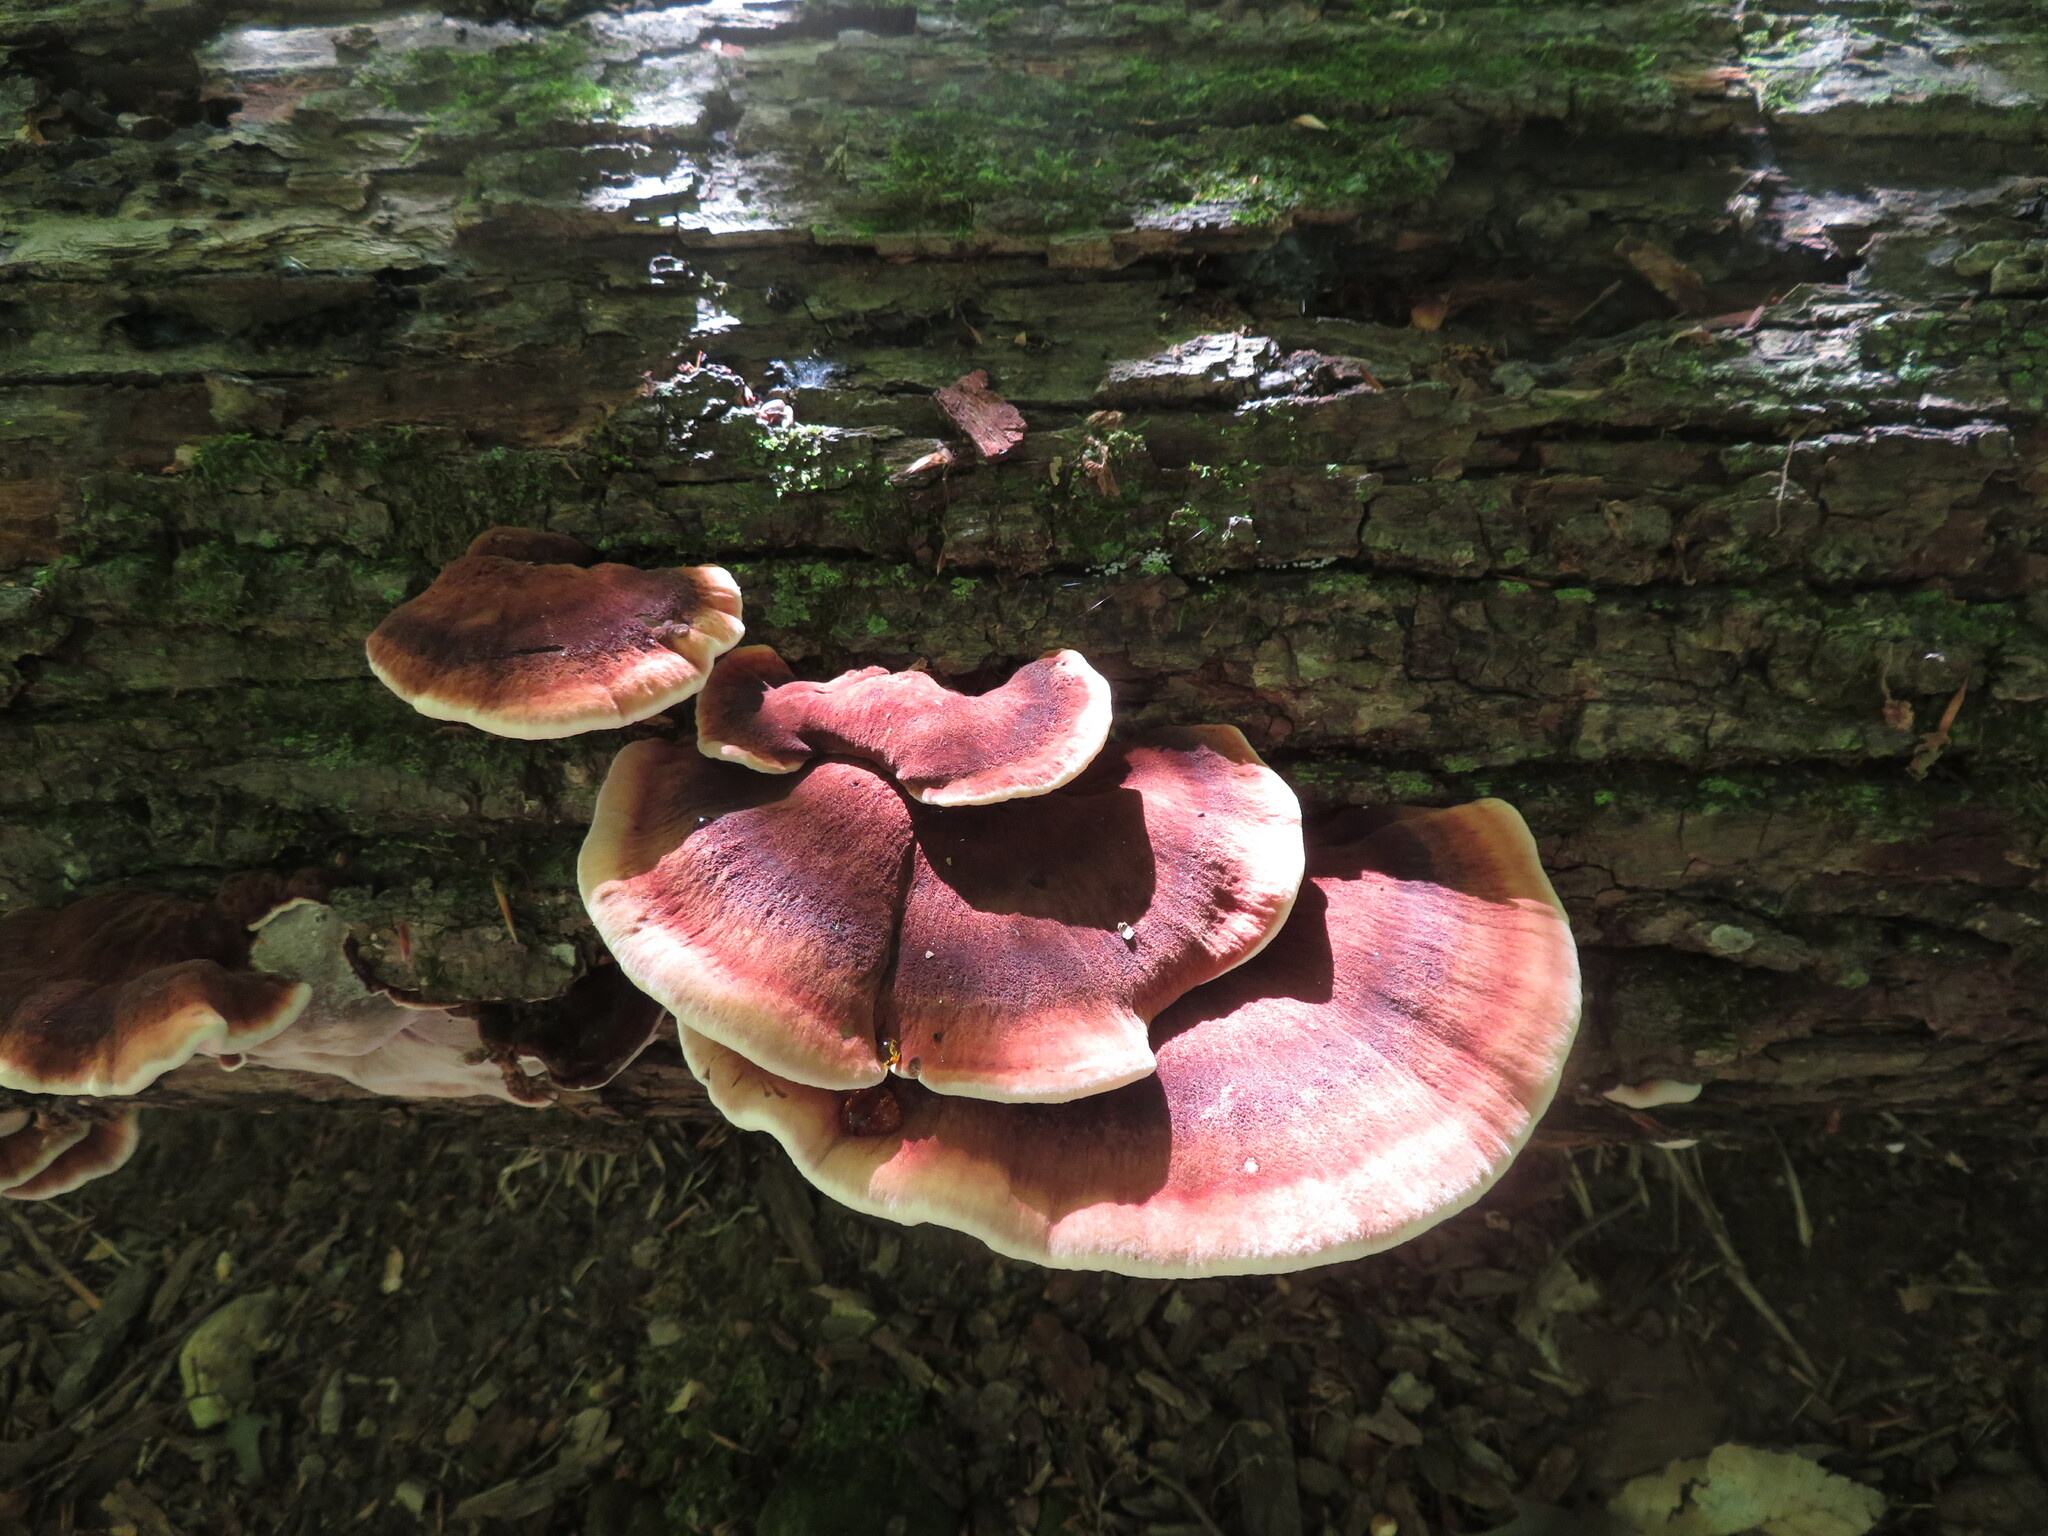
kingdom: Fungi
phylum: Basidiomycota
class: Agaricomycetes
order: Polyporales
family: Ischnodermataceae
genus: Ischnoderma
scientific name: Ischnoderma resinosum
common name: Resinous polypore
